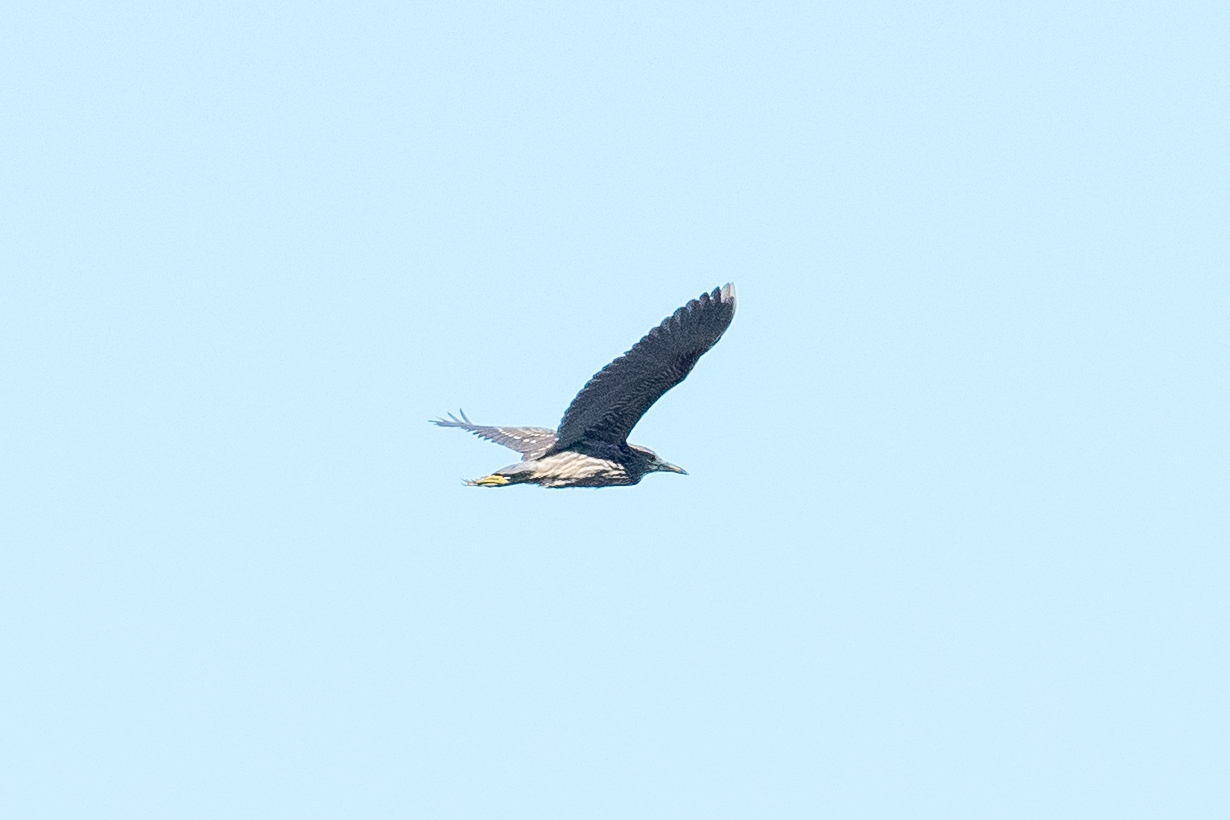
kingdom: Animalia
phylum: Chordata
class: Aves
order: Pelecaniformes
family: Ardeidae
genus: Nycticorax
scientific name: Nycticorax nycticorax
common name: Black-crowned night heron
